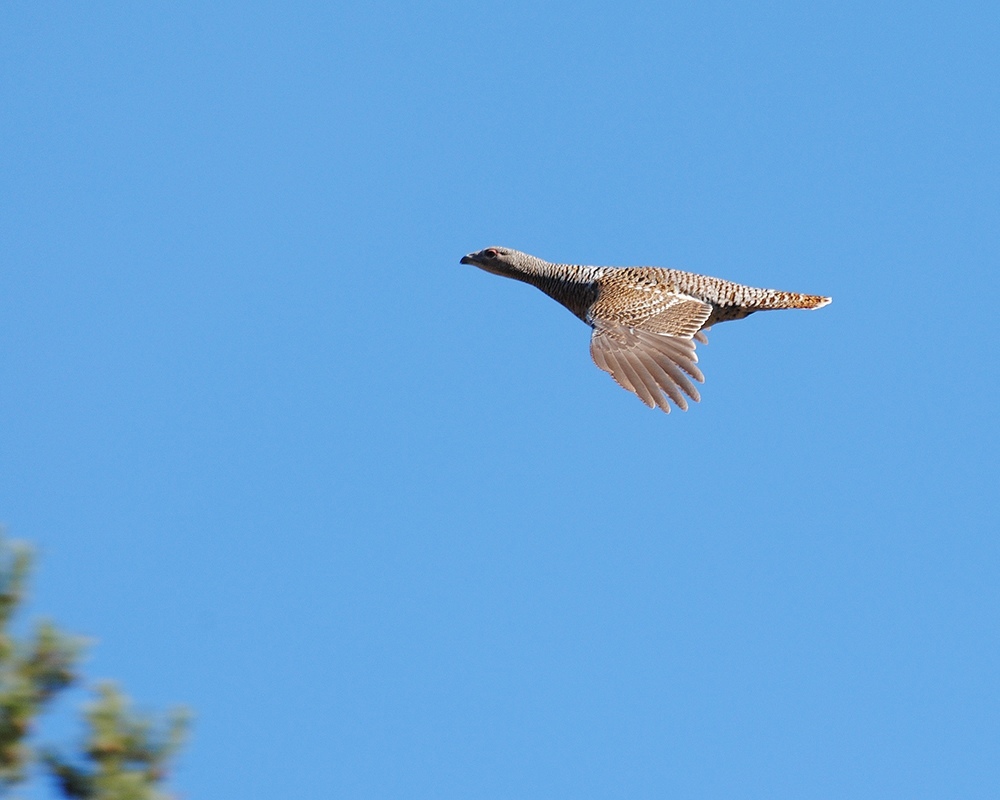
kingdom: Animalia
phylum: Chordata
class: Aves
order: Galliformes
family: Phasianidae
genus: Tetrao
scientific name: Tetrao urogallus
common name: Western capercaillie
